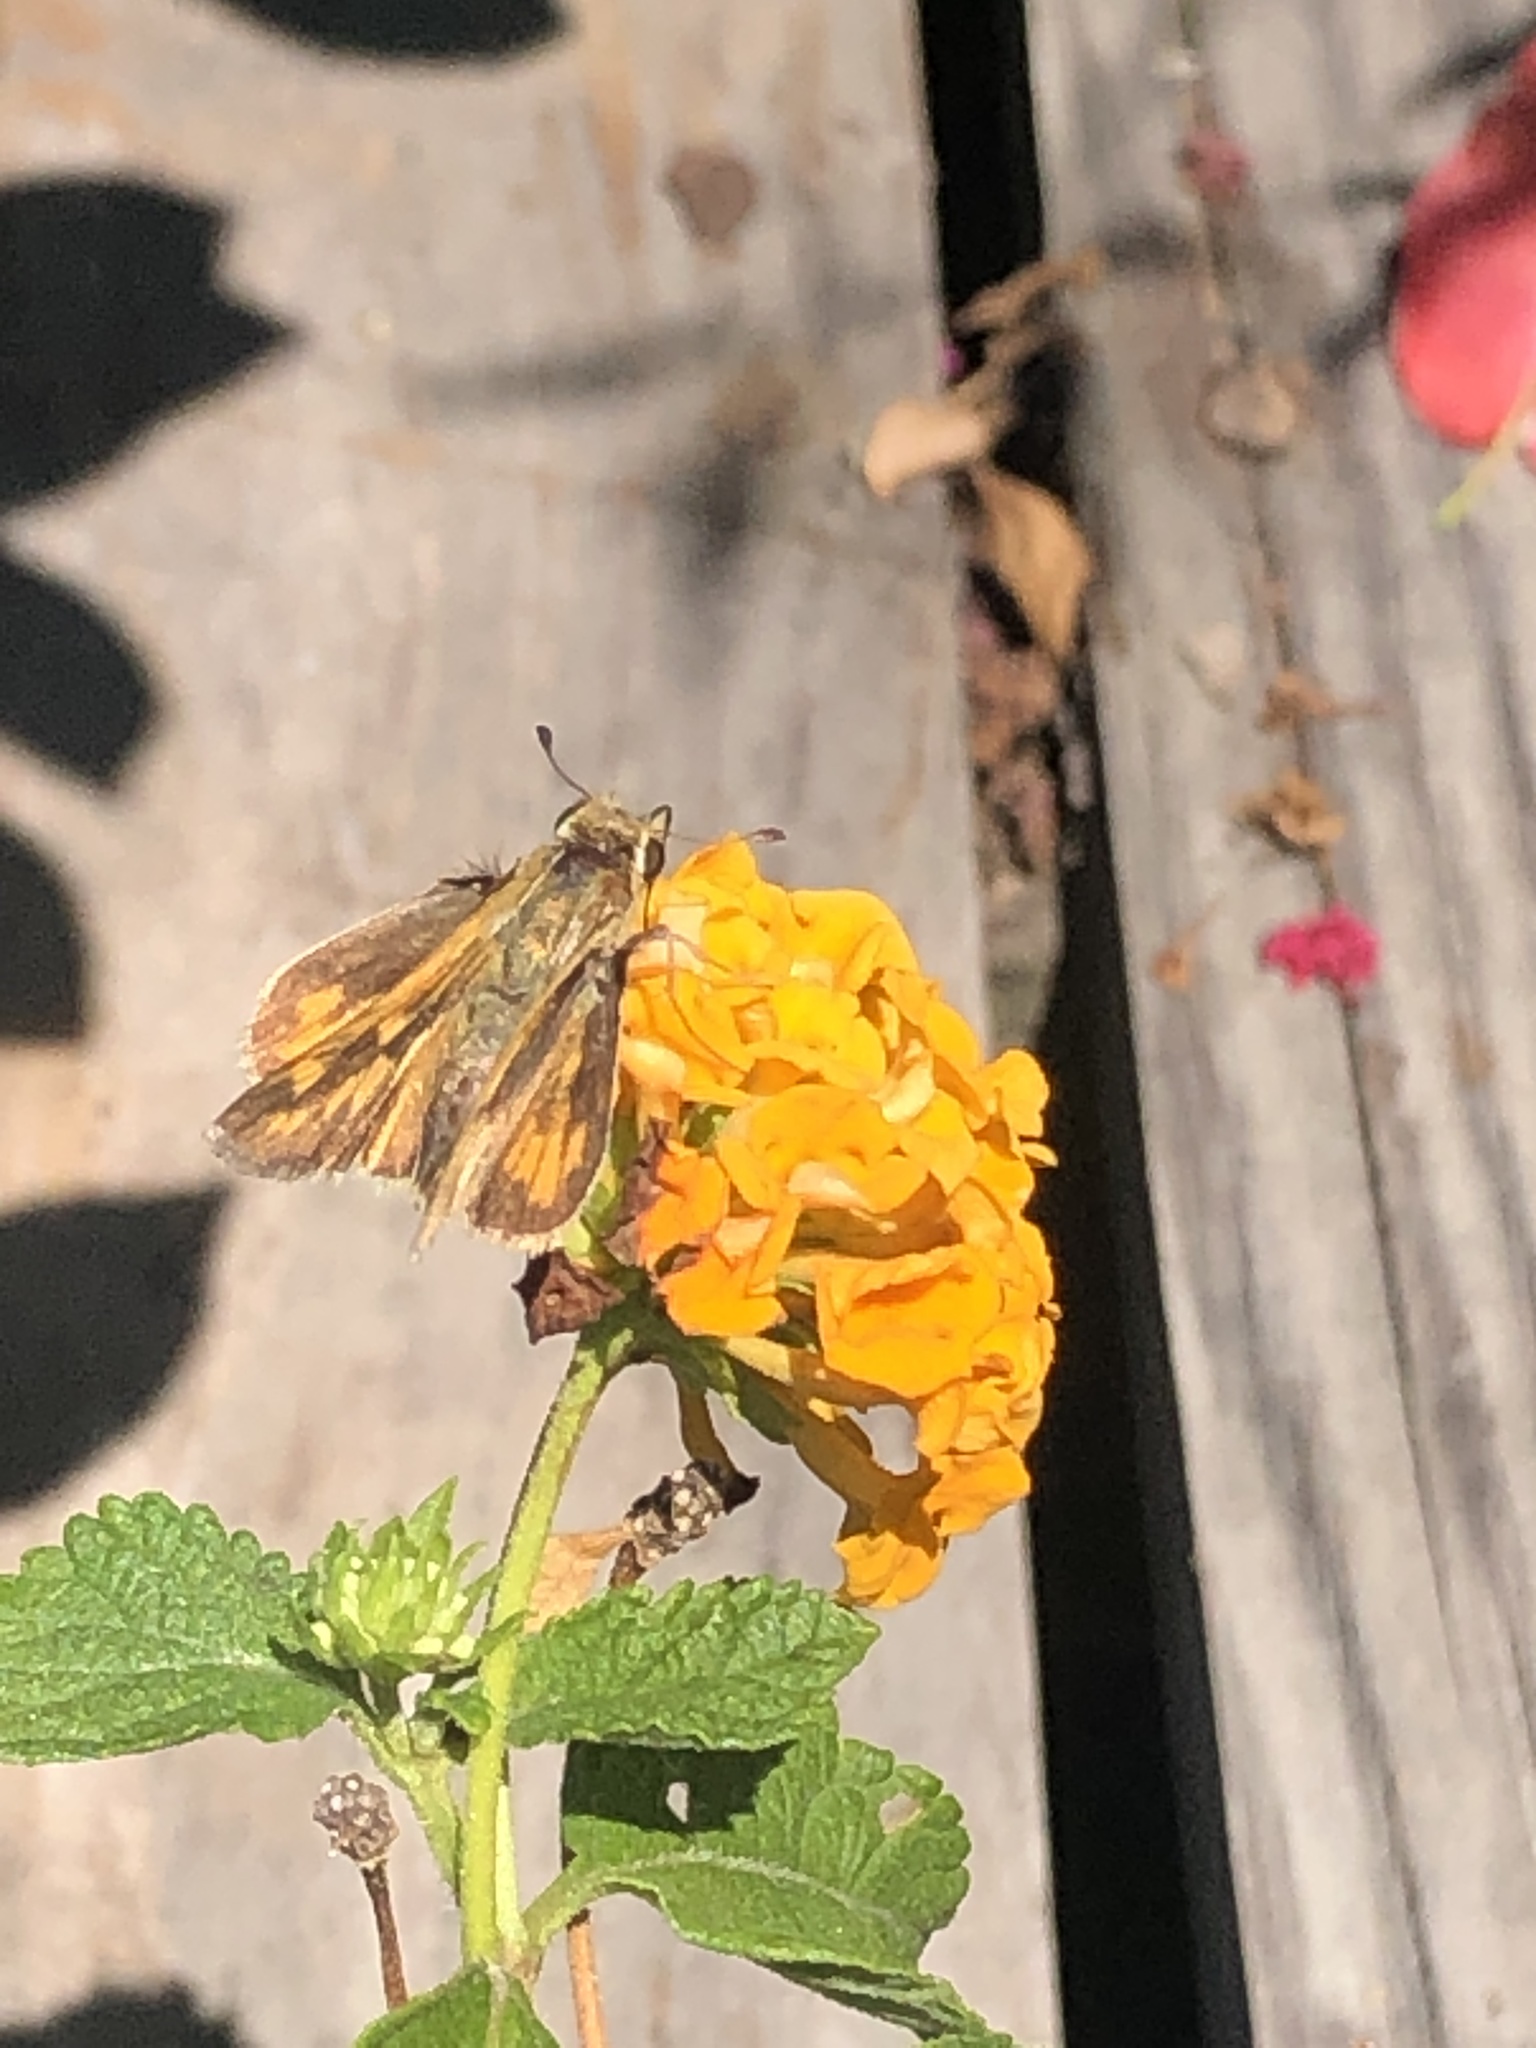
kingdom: Animalia
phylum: Arthropoda
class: Insecta
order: Lepidoptera
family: Hesperiidae
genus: Hylephila
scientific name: Hylephila phyleus
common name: Fiery skipper
